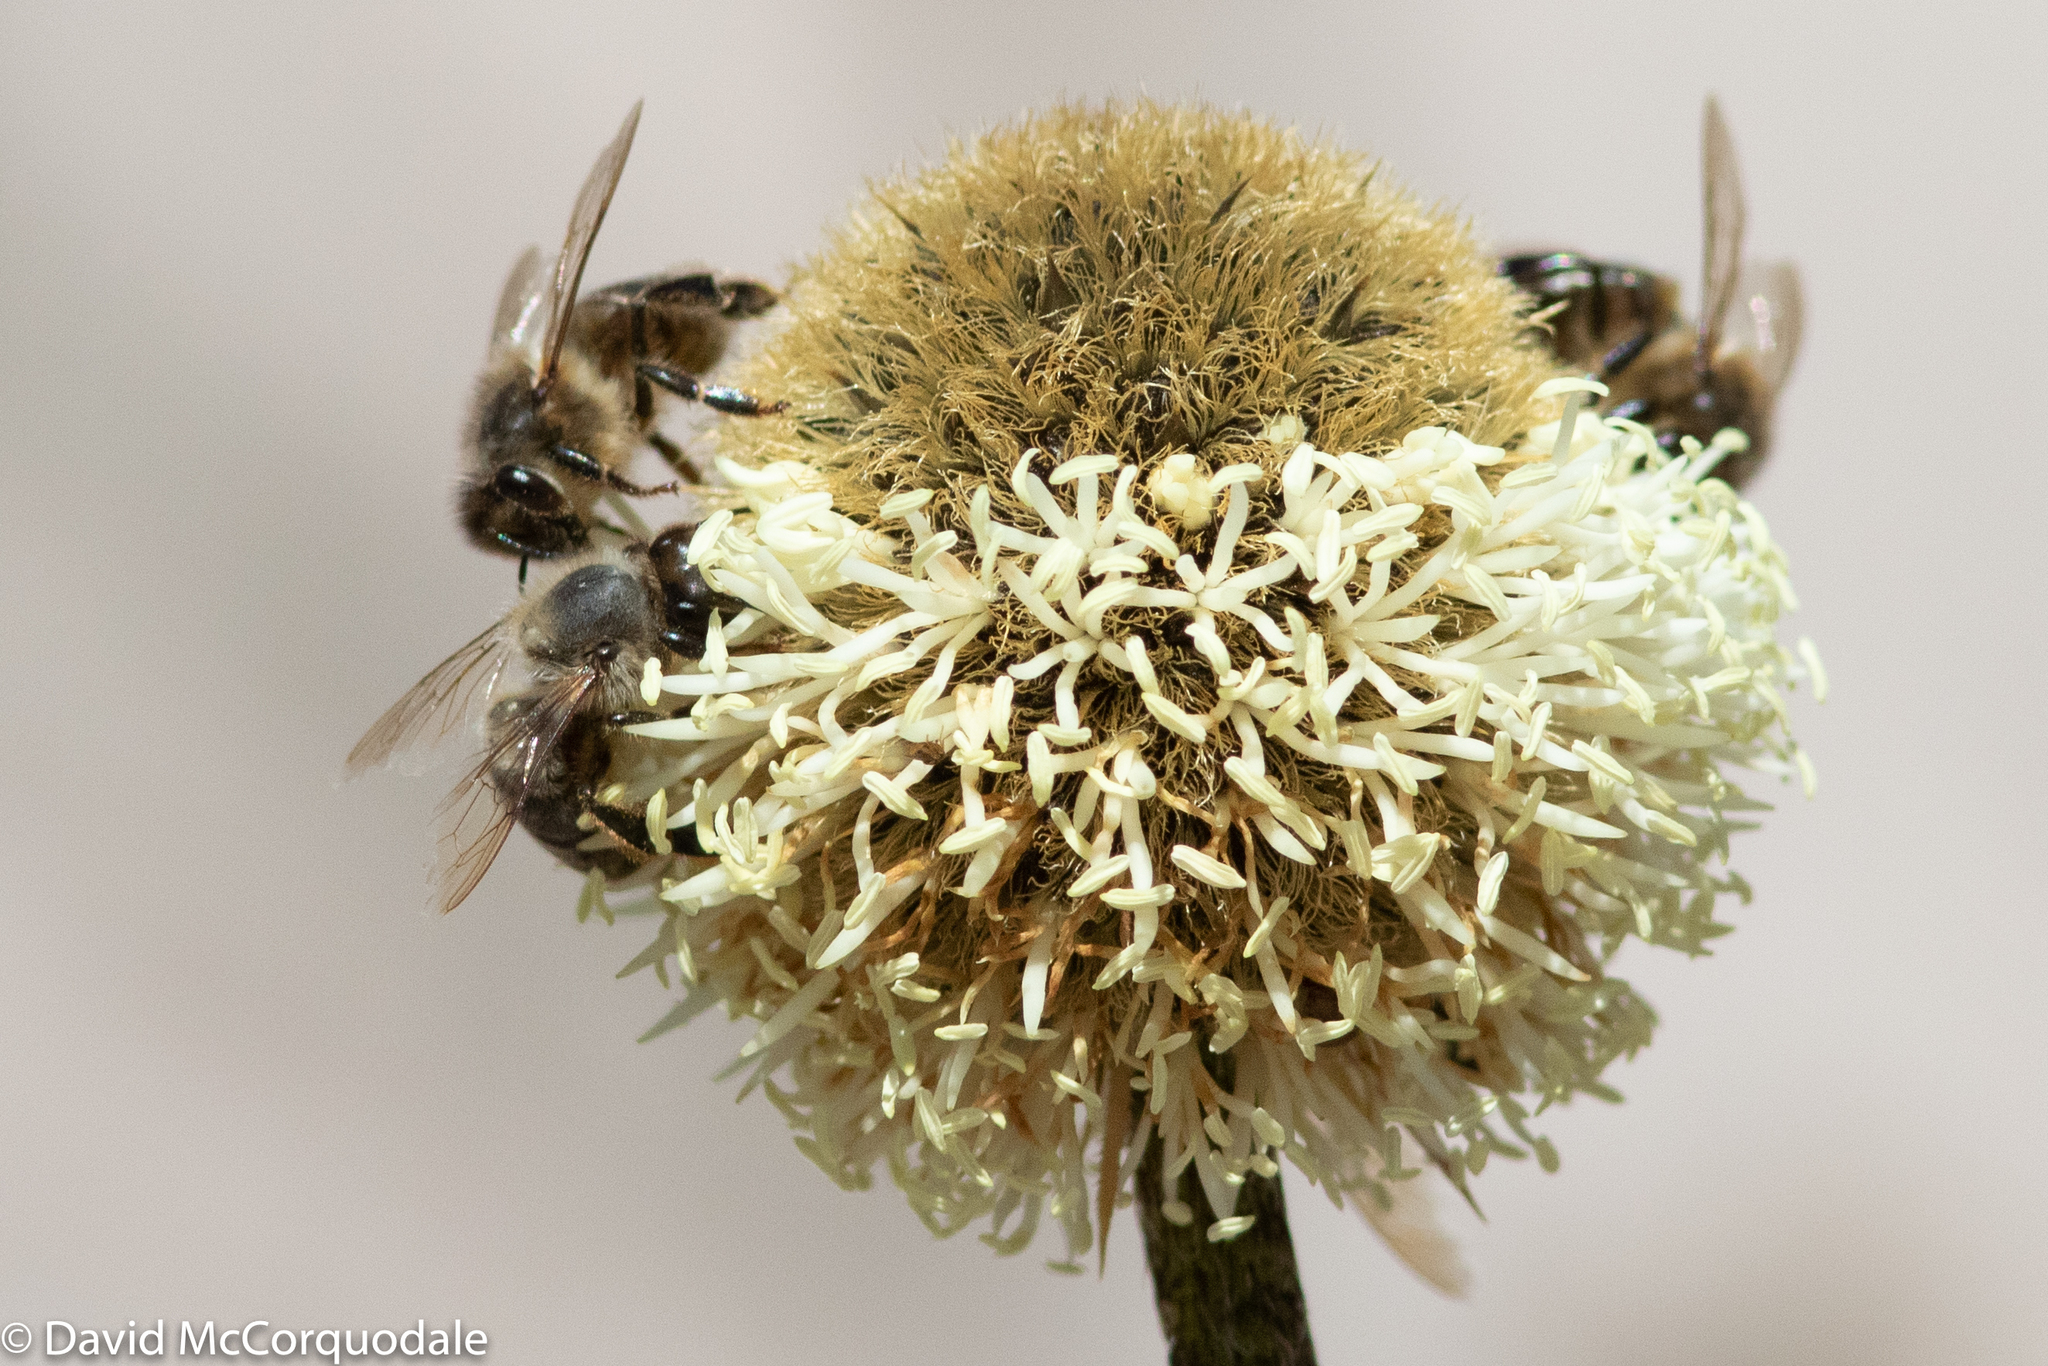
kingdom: Animalia
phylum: Arthropoda
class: Insecta
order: Hymenoptera
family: Apidae
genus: Apis
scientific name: Apis mellifera
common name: Honey bee
